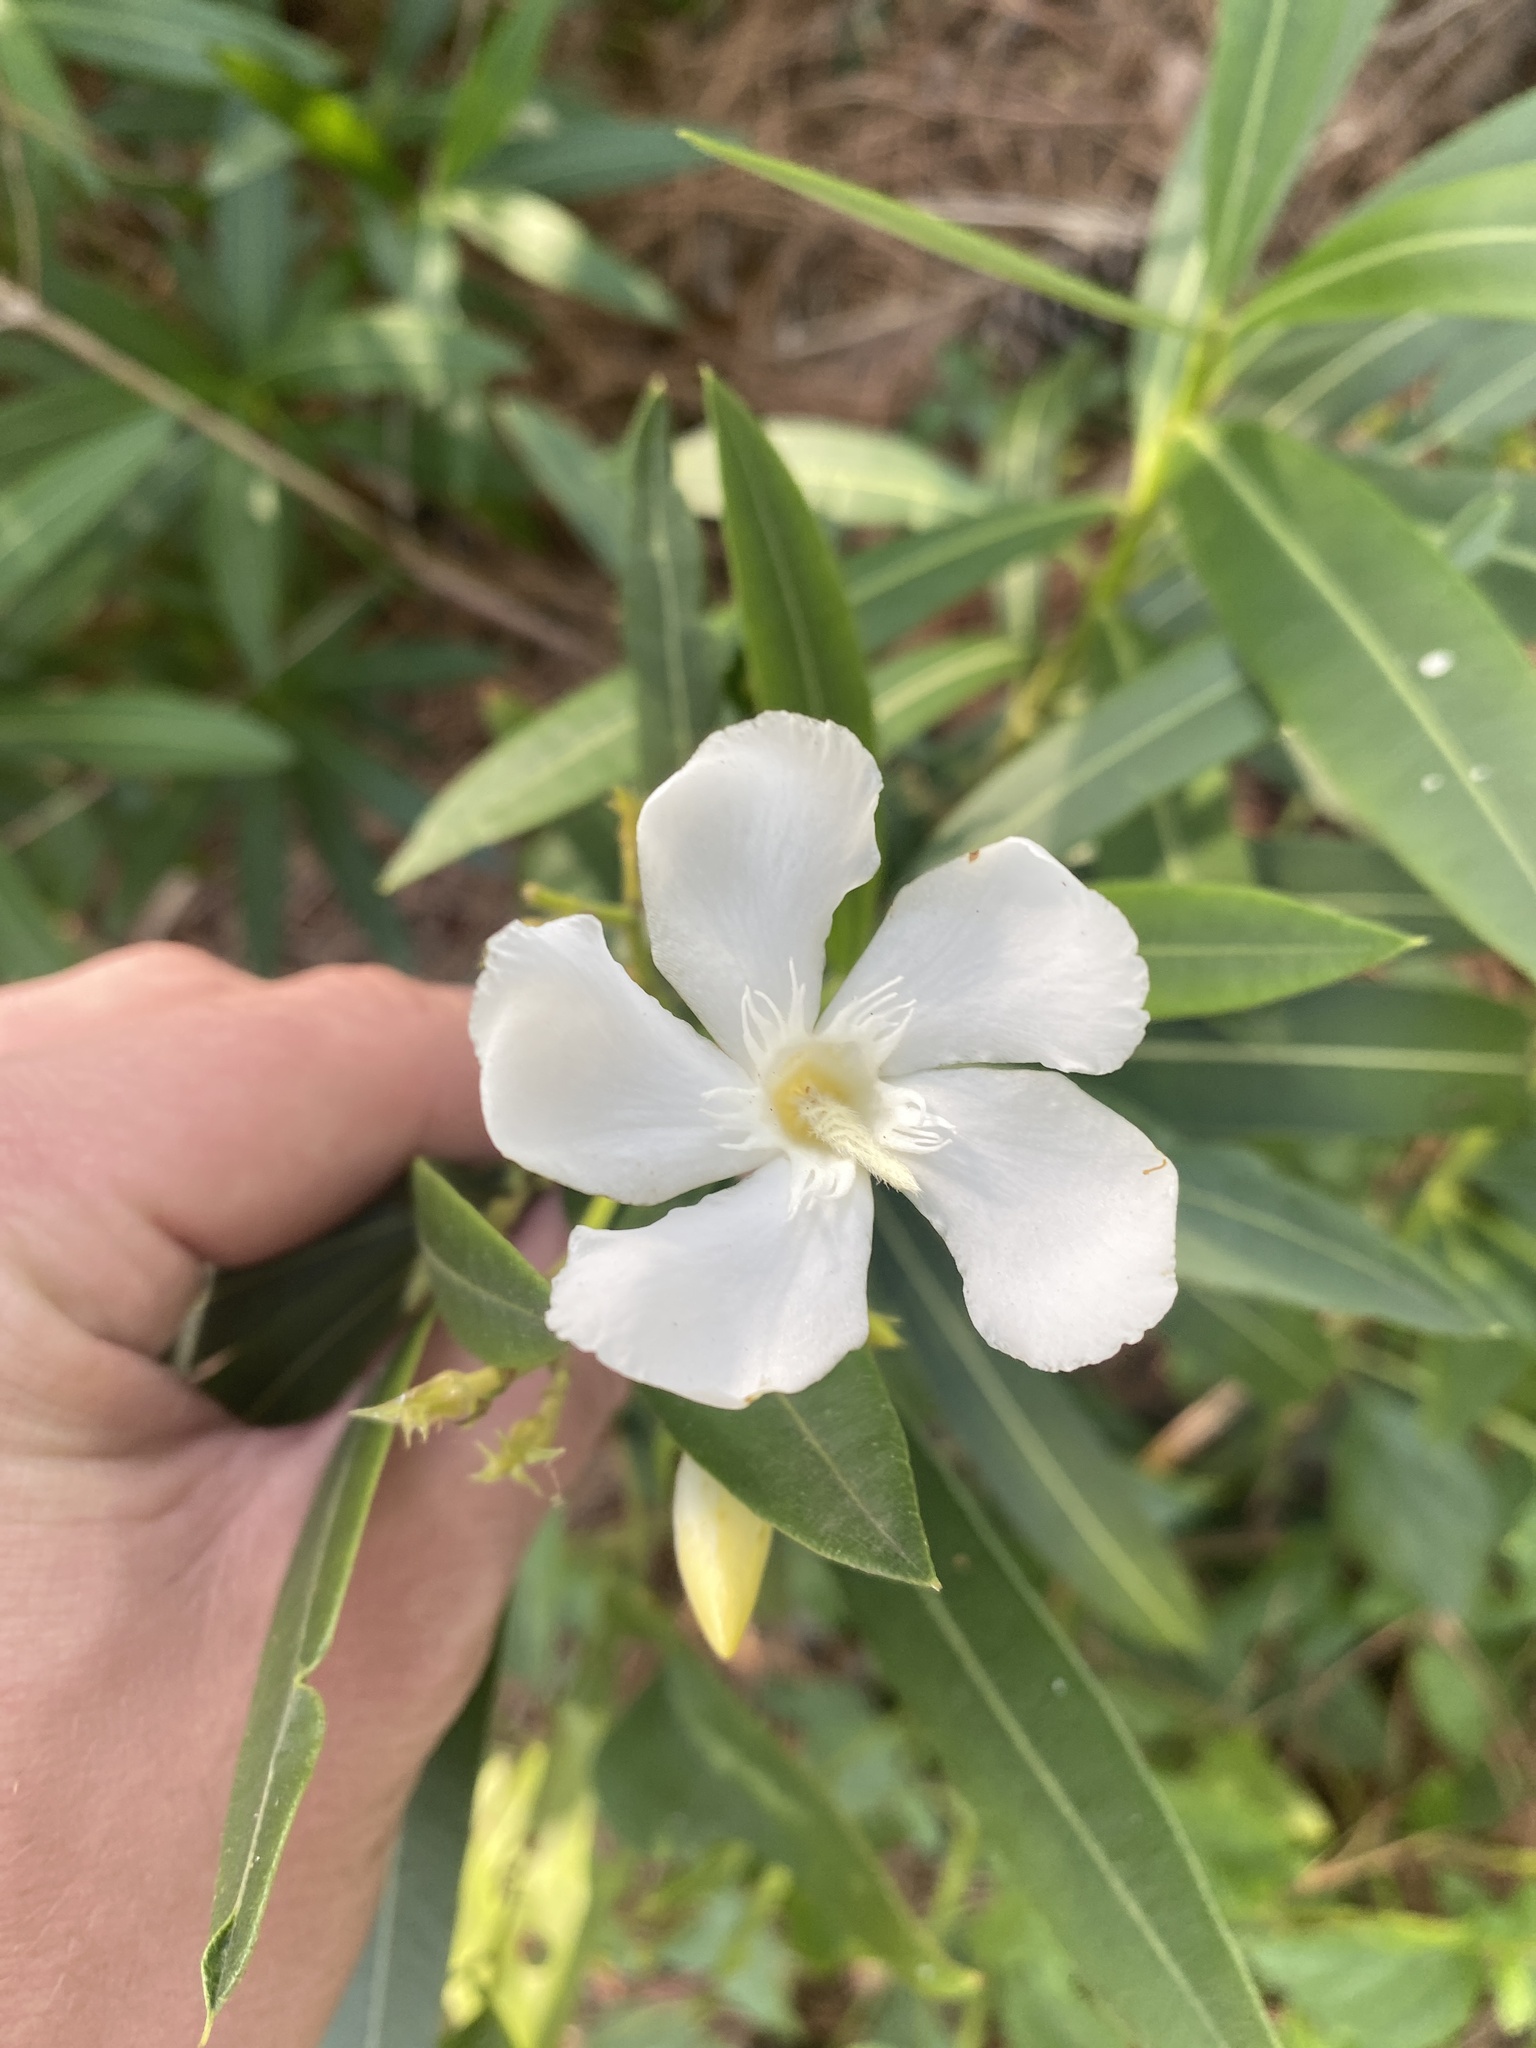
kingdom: Plantae
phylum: Tracheophyta
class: Magnoliopsida
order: Gentianales
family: Apocynaceae
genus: Nerium
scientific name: Nerium oleander
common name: Oleander
